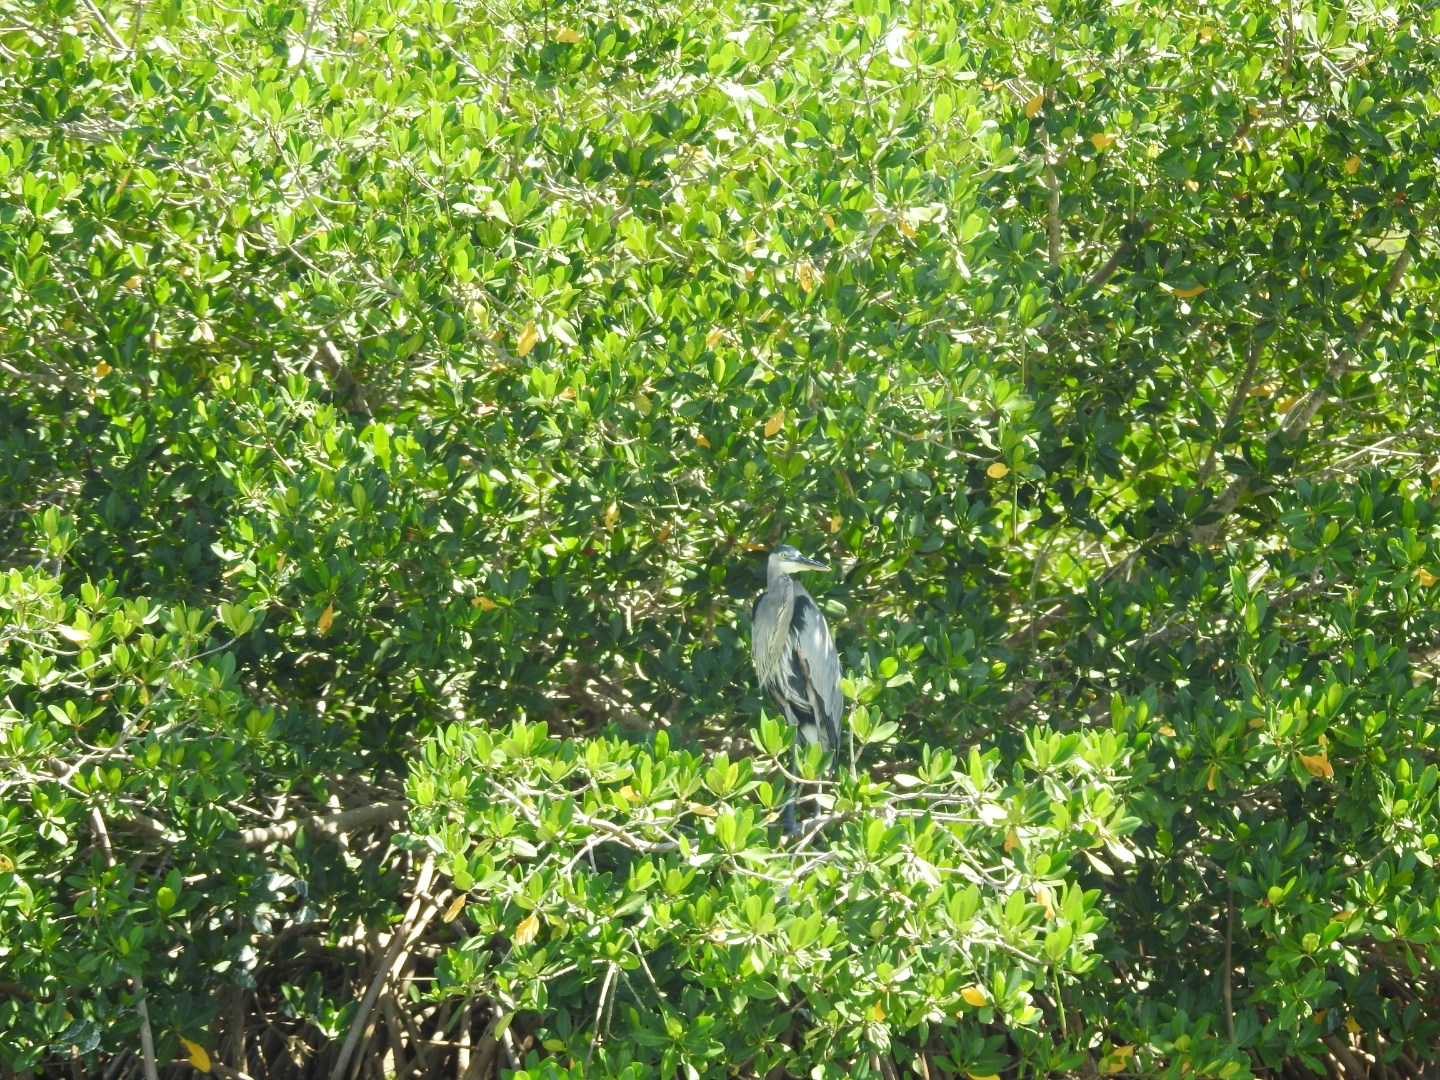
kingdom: Animalia
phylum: Chordata
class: Aves
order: Pelecaniformes
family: Ardeidae
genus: Ardea
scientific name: Ardea herodias
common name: Great blue heron
